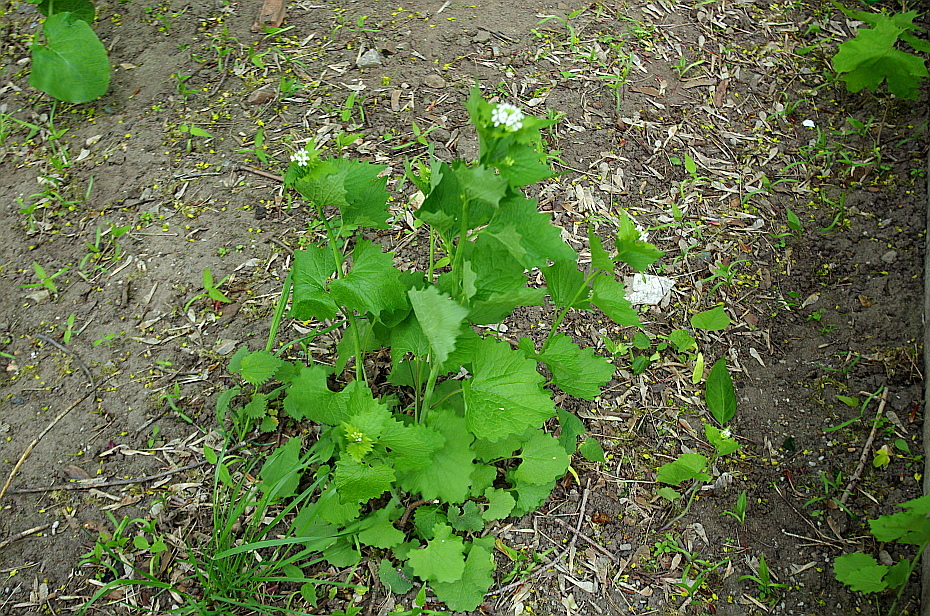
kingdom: Plantae
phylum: Tracheophyta
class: Magnoliopsida
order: Brassicales
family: Brassicaceae
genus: Alliaria
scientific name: Alliaria petiolata
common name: Garlic mustard
